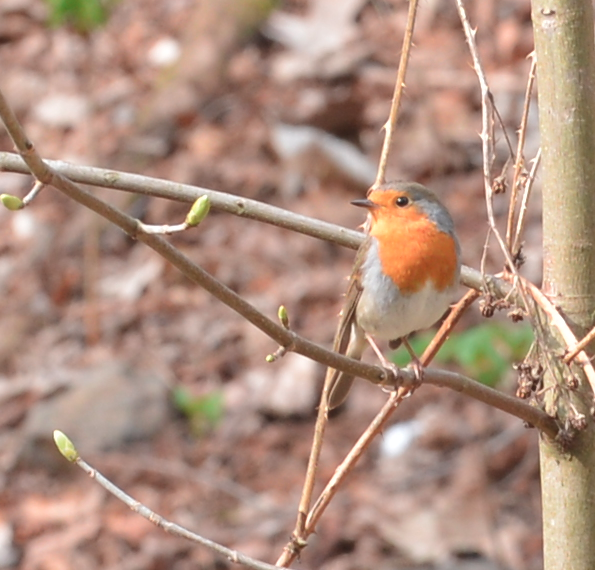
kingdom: Animalia
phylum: Chordata
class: Aves
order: Passeriformes
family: Muscicapidae
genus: Erithacus
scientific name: Erithacus rubecula
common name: European robin
